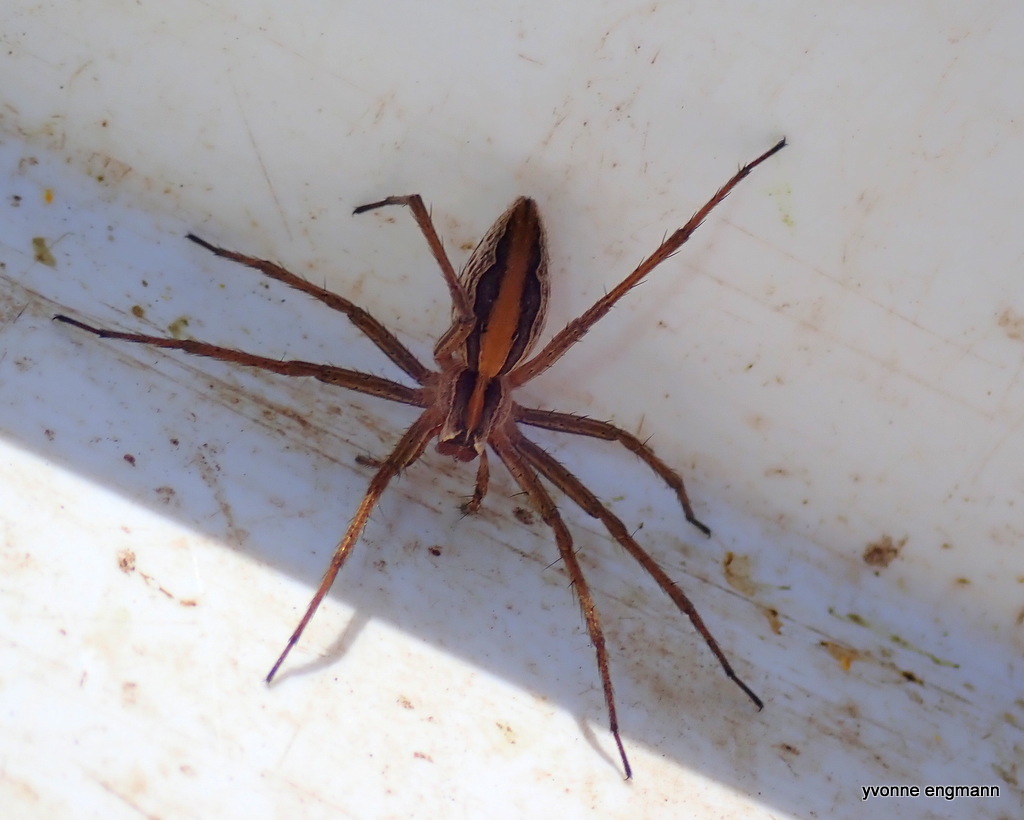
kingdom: Animalia
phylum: Arthropoda
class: Arachnida
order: Araneae
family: Pisauridae
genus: Pisaura
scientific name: Pisaura mirabilis
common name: Tent spider
